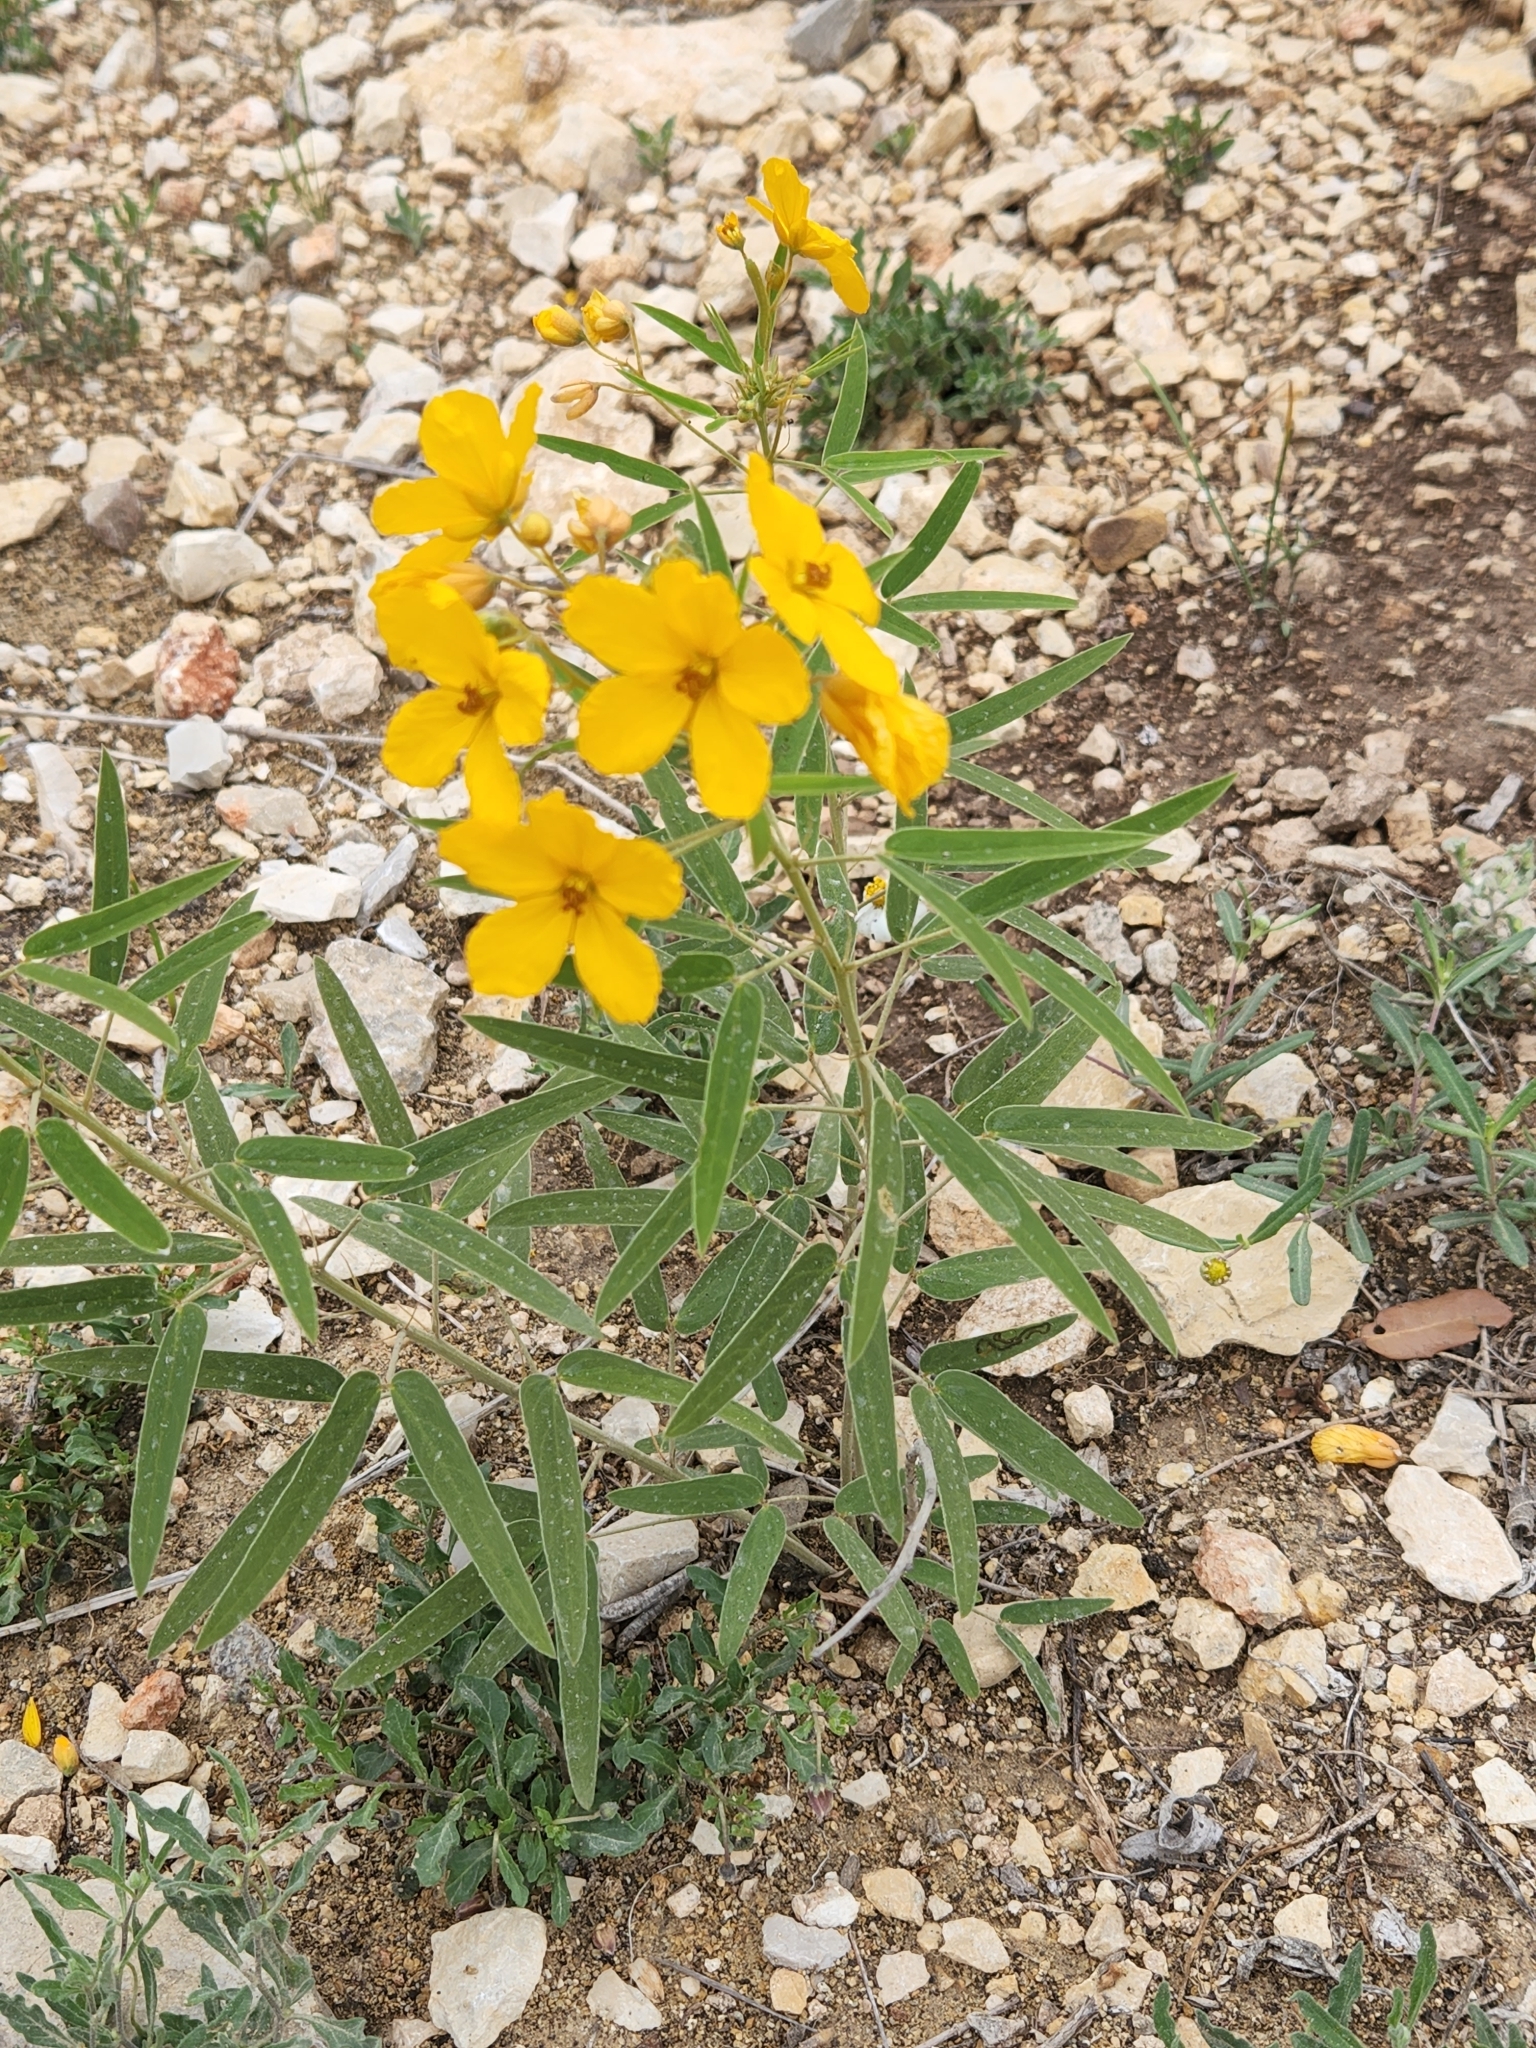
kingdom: Plantae
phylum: Tracheophyta
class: Magnoliopsida
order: Fabales
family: Fabaceae
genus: Senna
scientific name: Senna roemeriana
